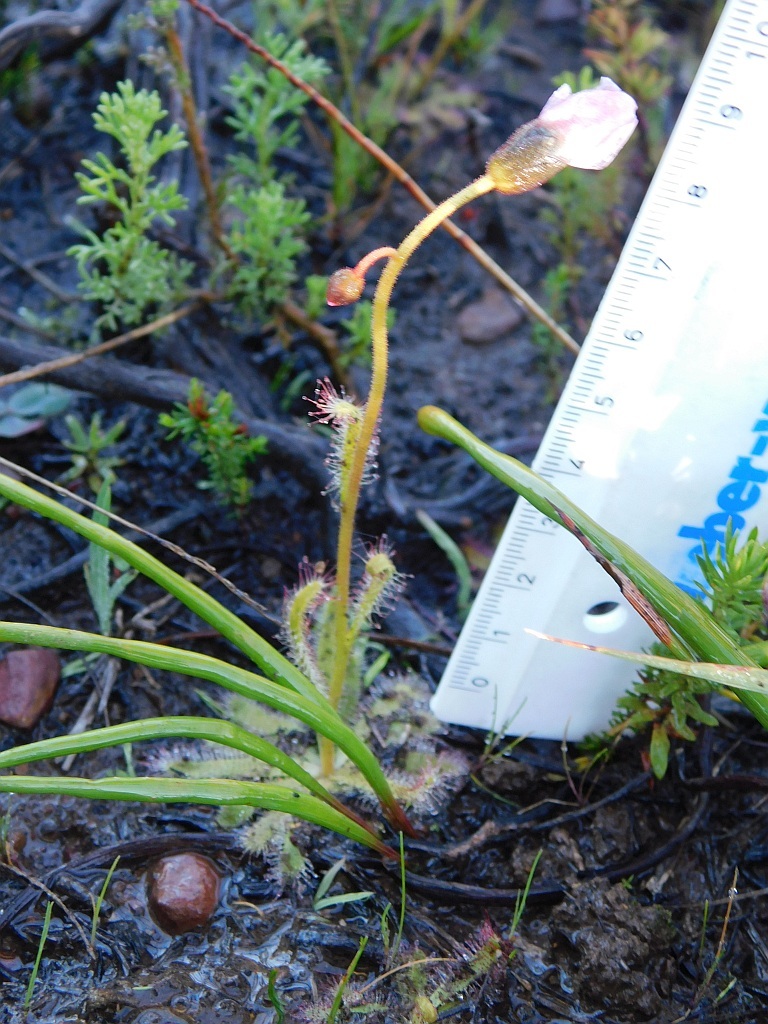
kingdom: Plantae
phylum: Tracheophyta
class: Magnoliopsida
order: Caryophyllales
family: Droseraceae
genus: Drosera
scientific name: Drosera cistiflora
